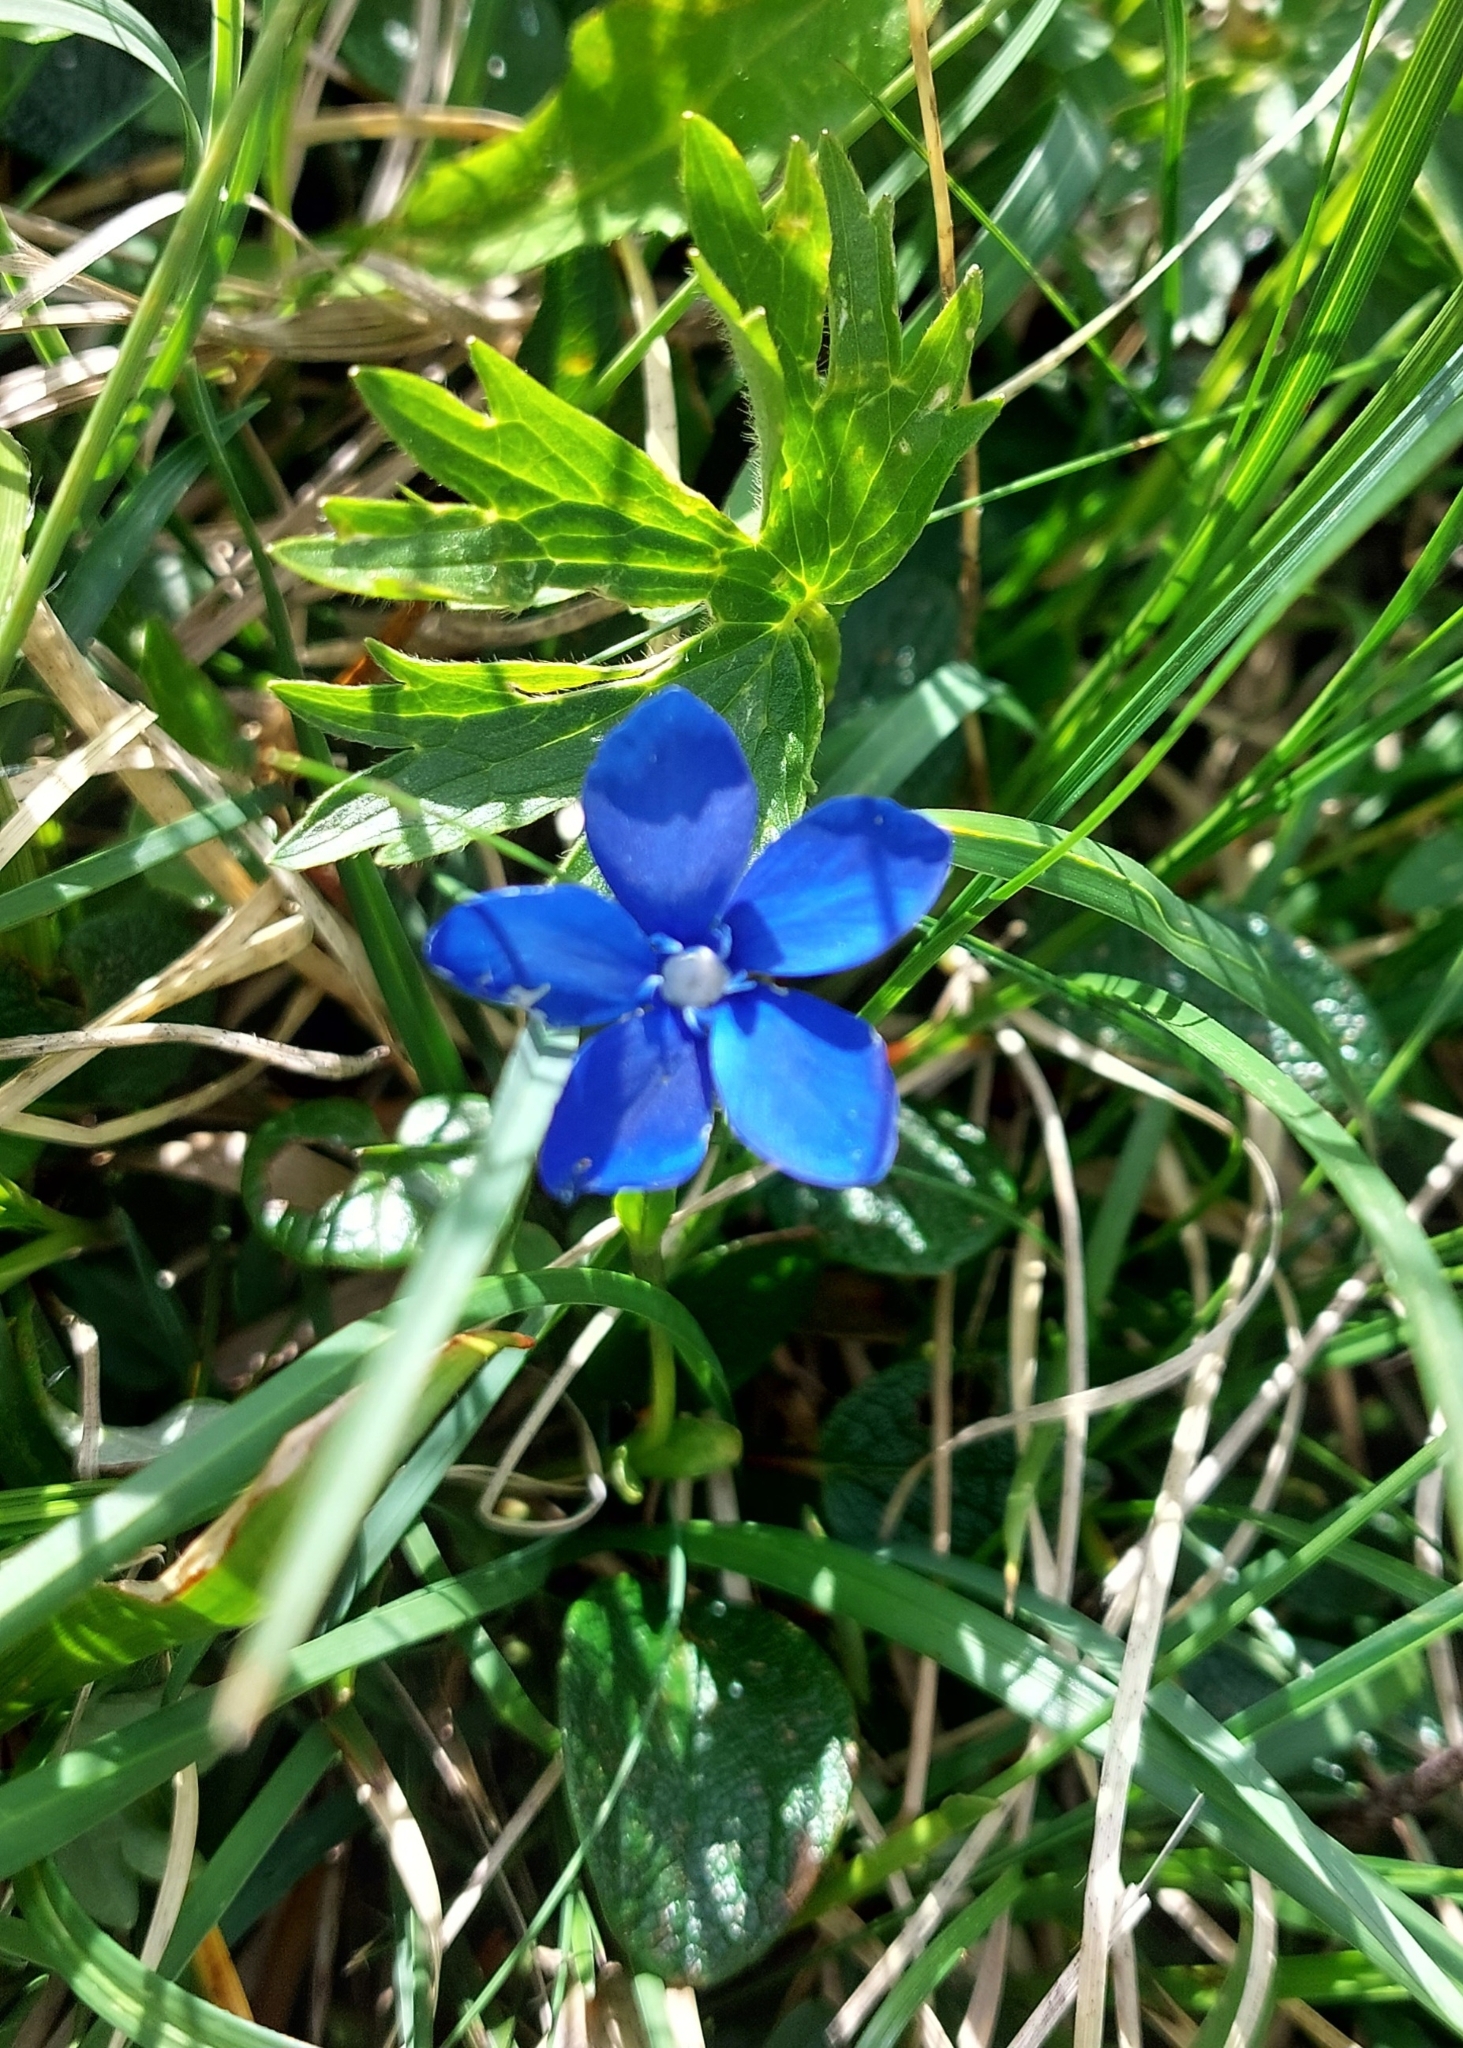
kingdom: Plantae
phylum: Tracheophyta
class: Magnoliopsida
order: Gentianales
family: Gentianaceae
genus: Gentiana
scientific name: Gentiana bavarica
